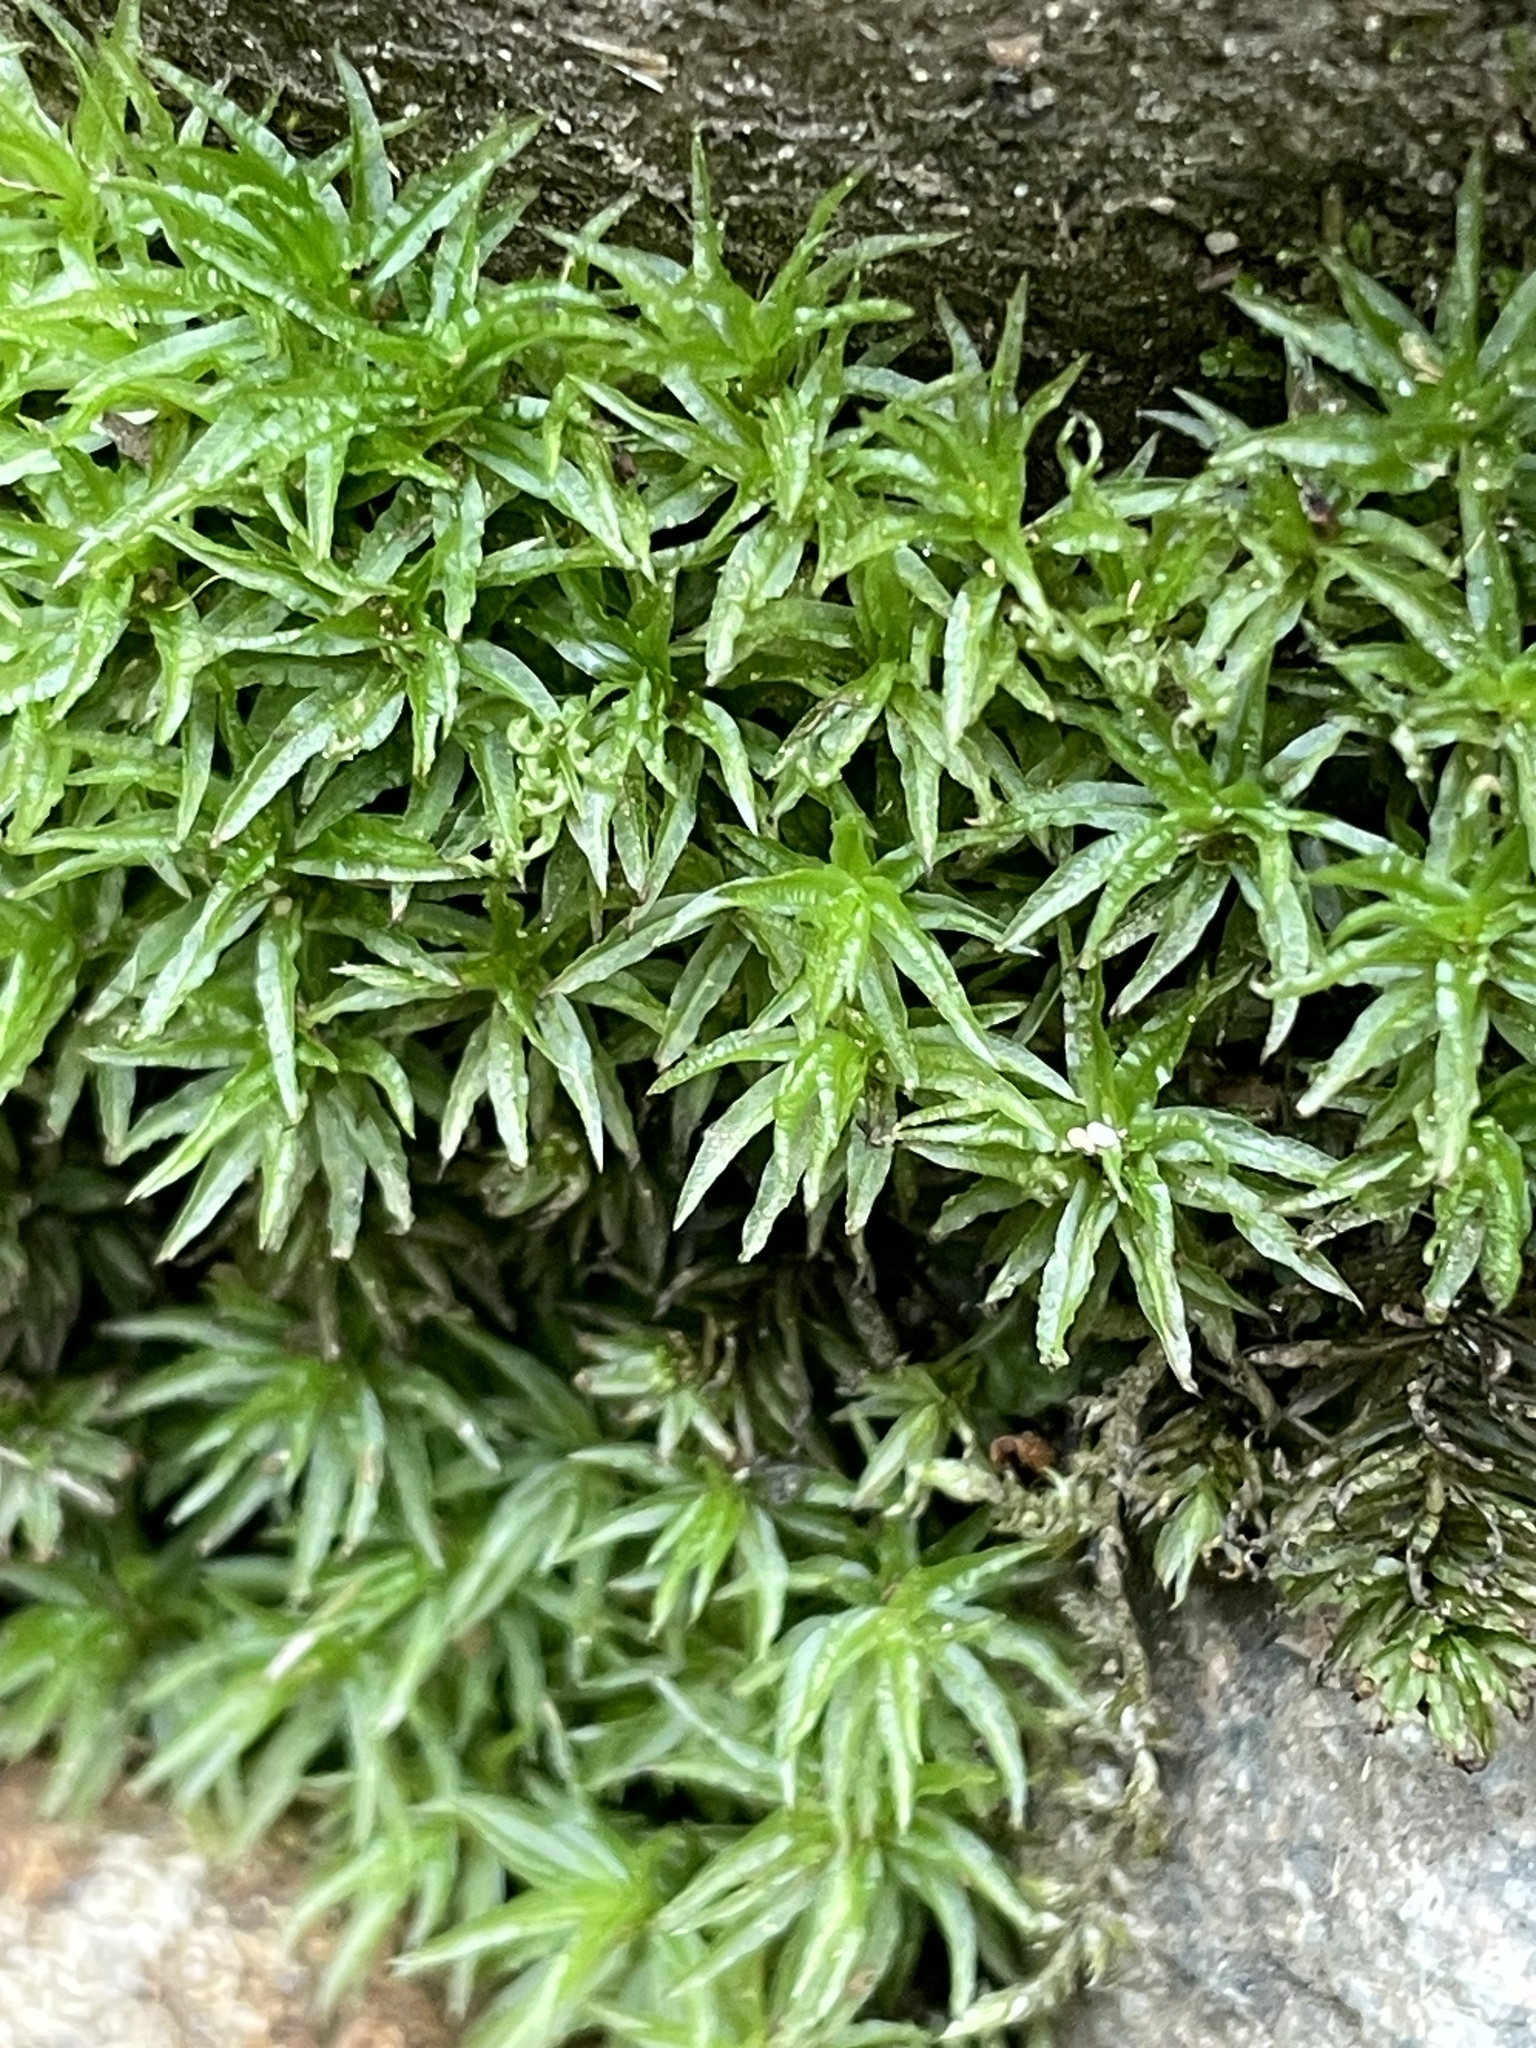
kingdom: Plantae
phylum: Bryophyta
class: Polytrichopsida
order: Polytrichales
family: Polytrichaceae
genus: Atrichum
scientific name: Atrichum undulatum
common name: Common smoothcap
